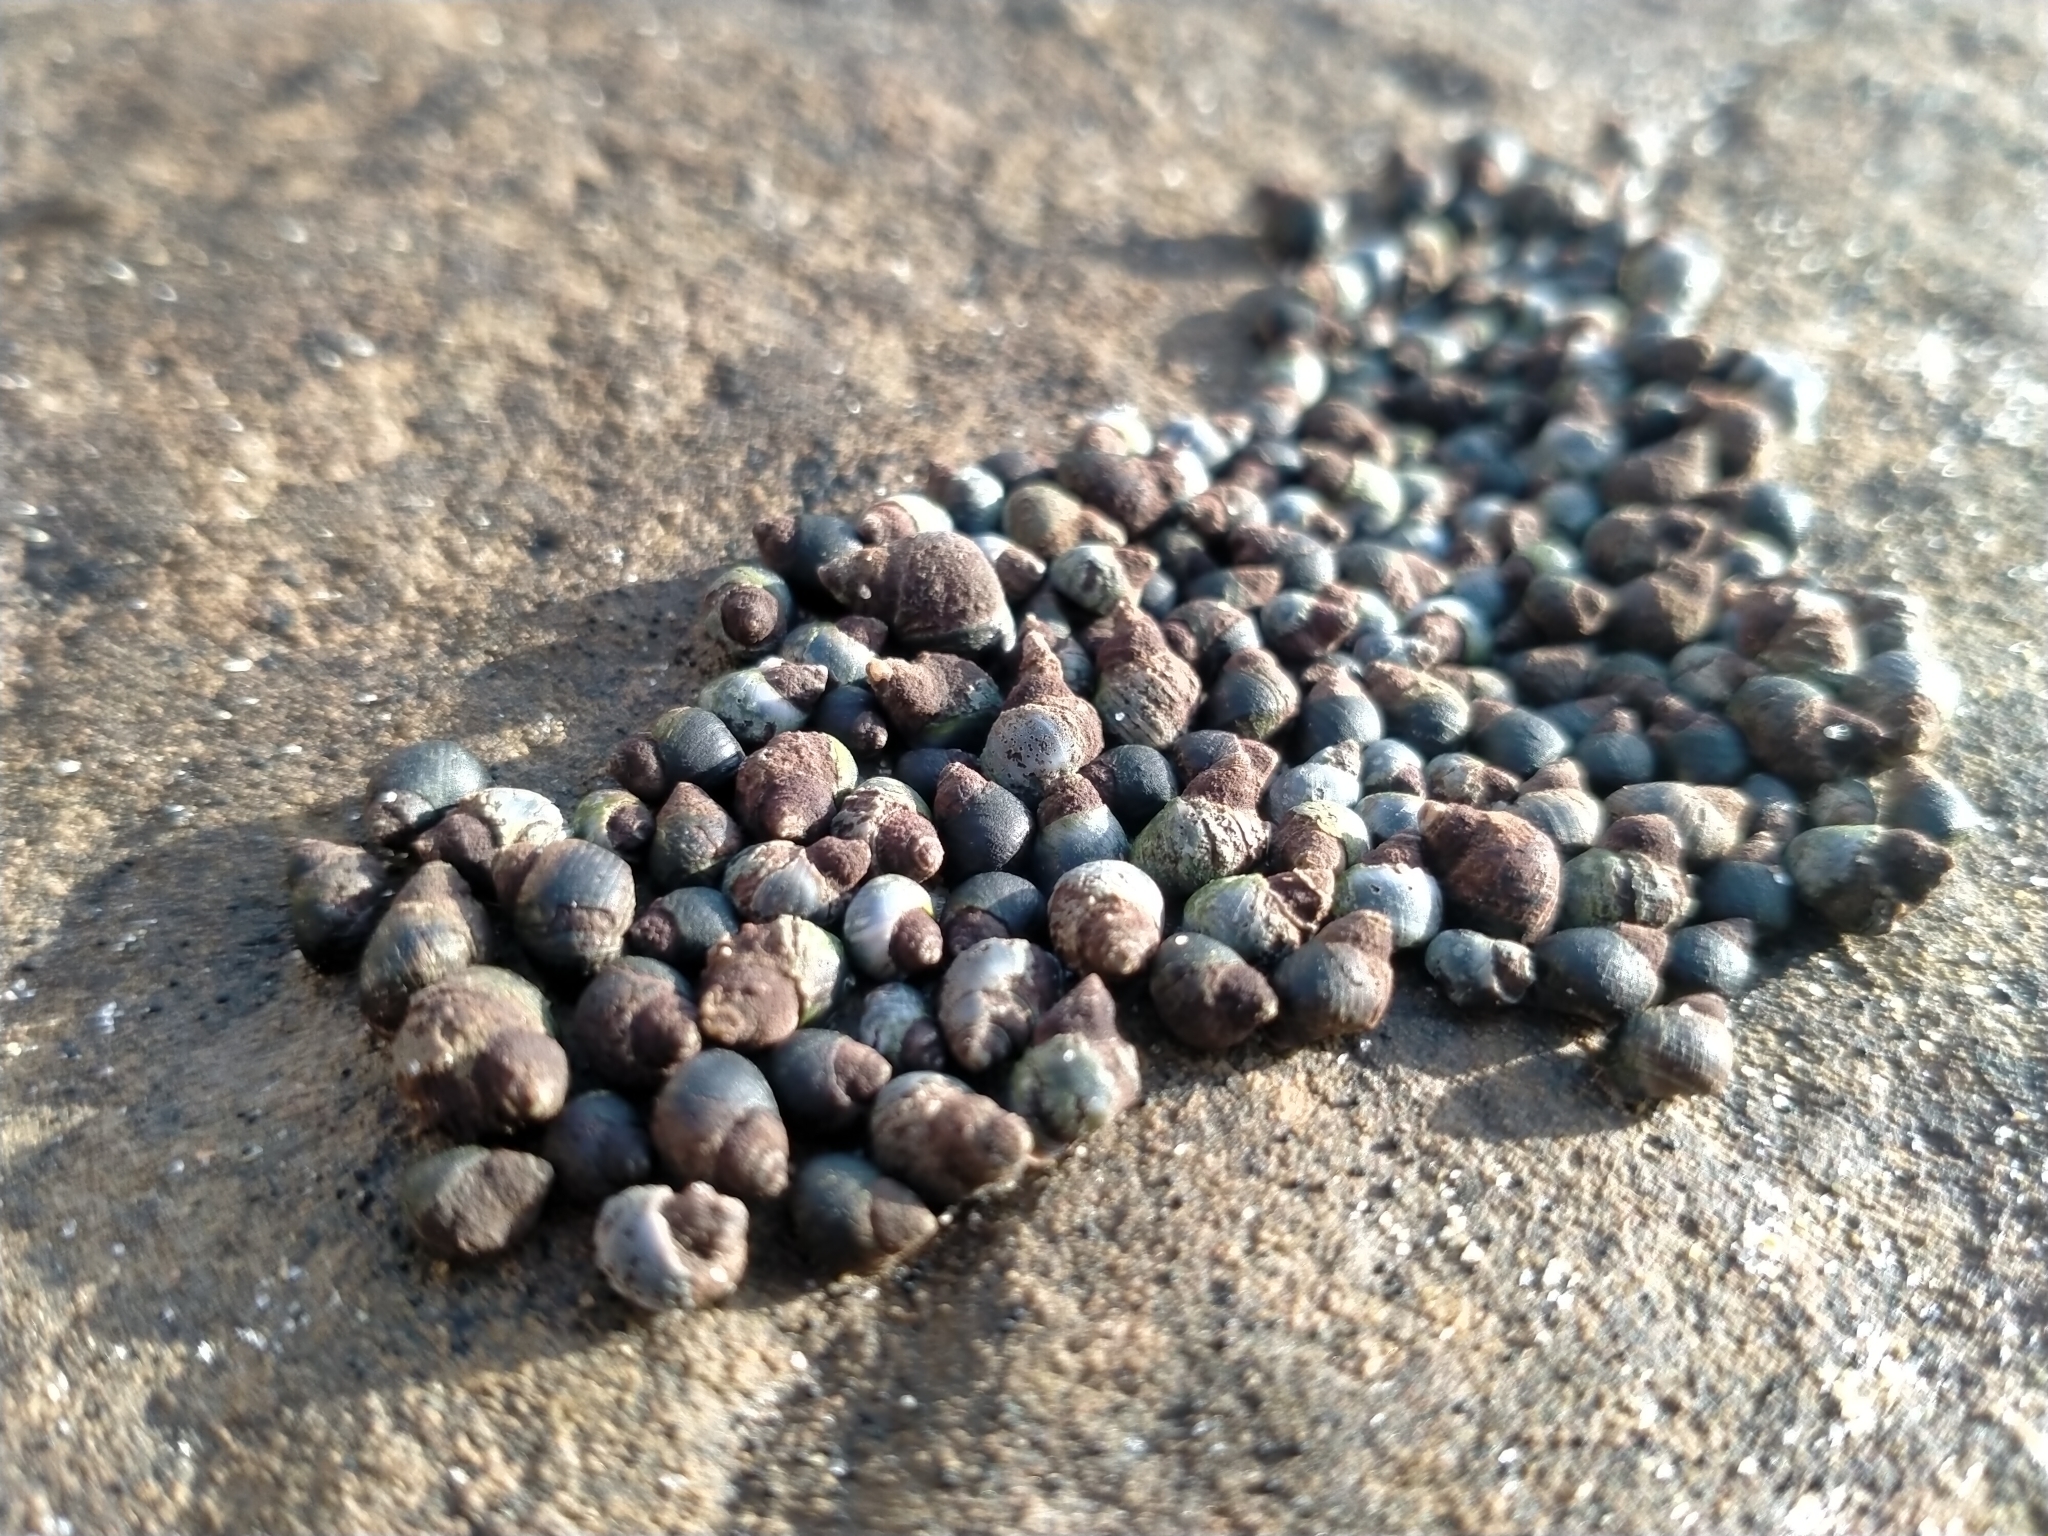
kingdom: Animalia
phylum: Mollusca
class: Gastropoda
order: Littorinimorpha
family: Littorinidae
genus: Austrolittorina
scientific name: Austrolittorina antipodum
